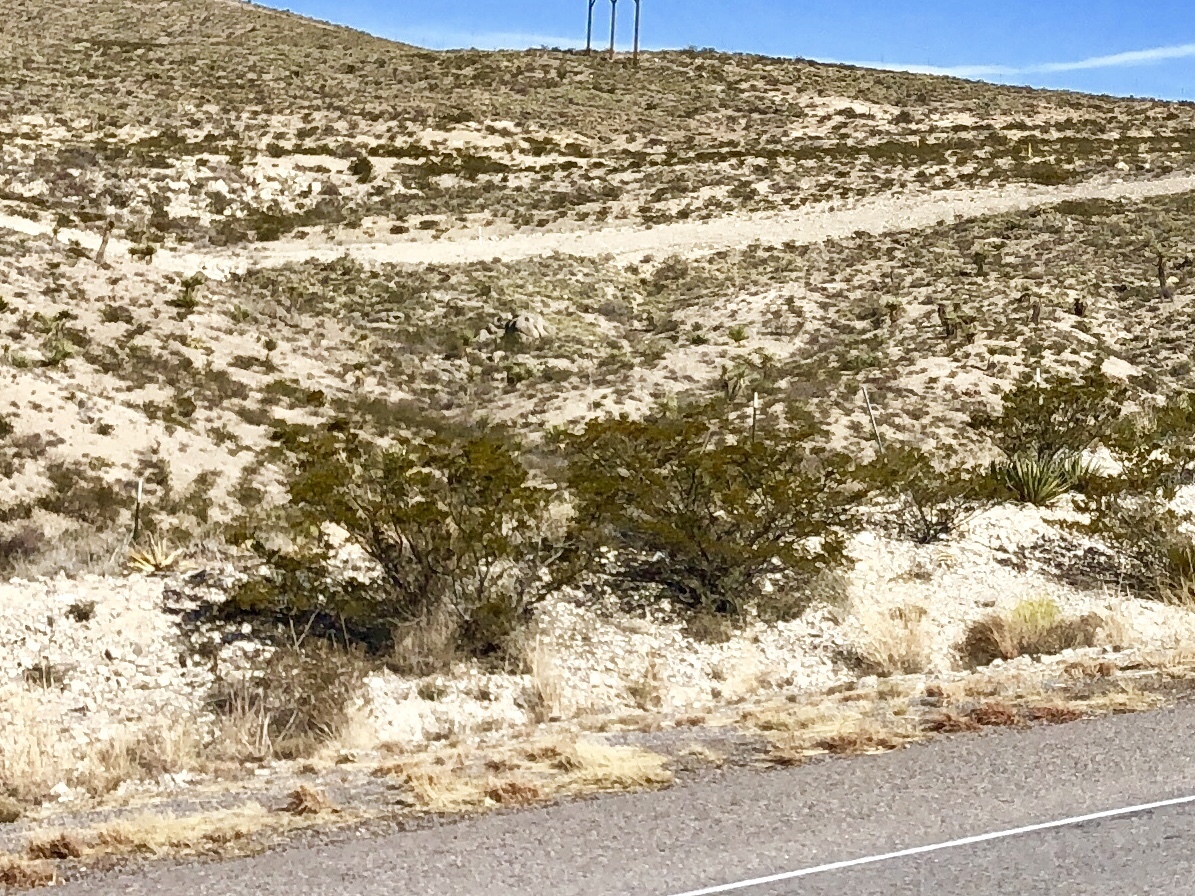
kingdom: Plantae
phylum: Tracheophyta
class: Magnoliopsida
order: Zygophyllales
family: Zygophyllaceae
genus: Larrea
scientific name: Larrea tridentata
